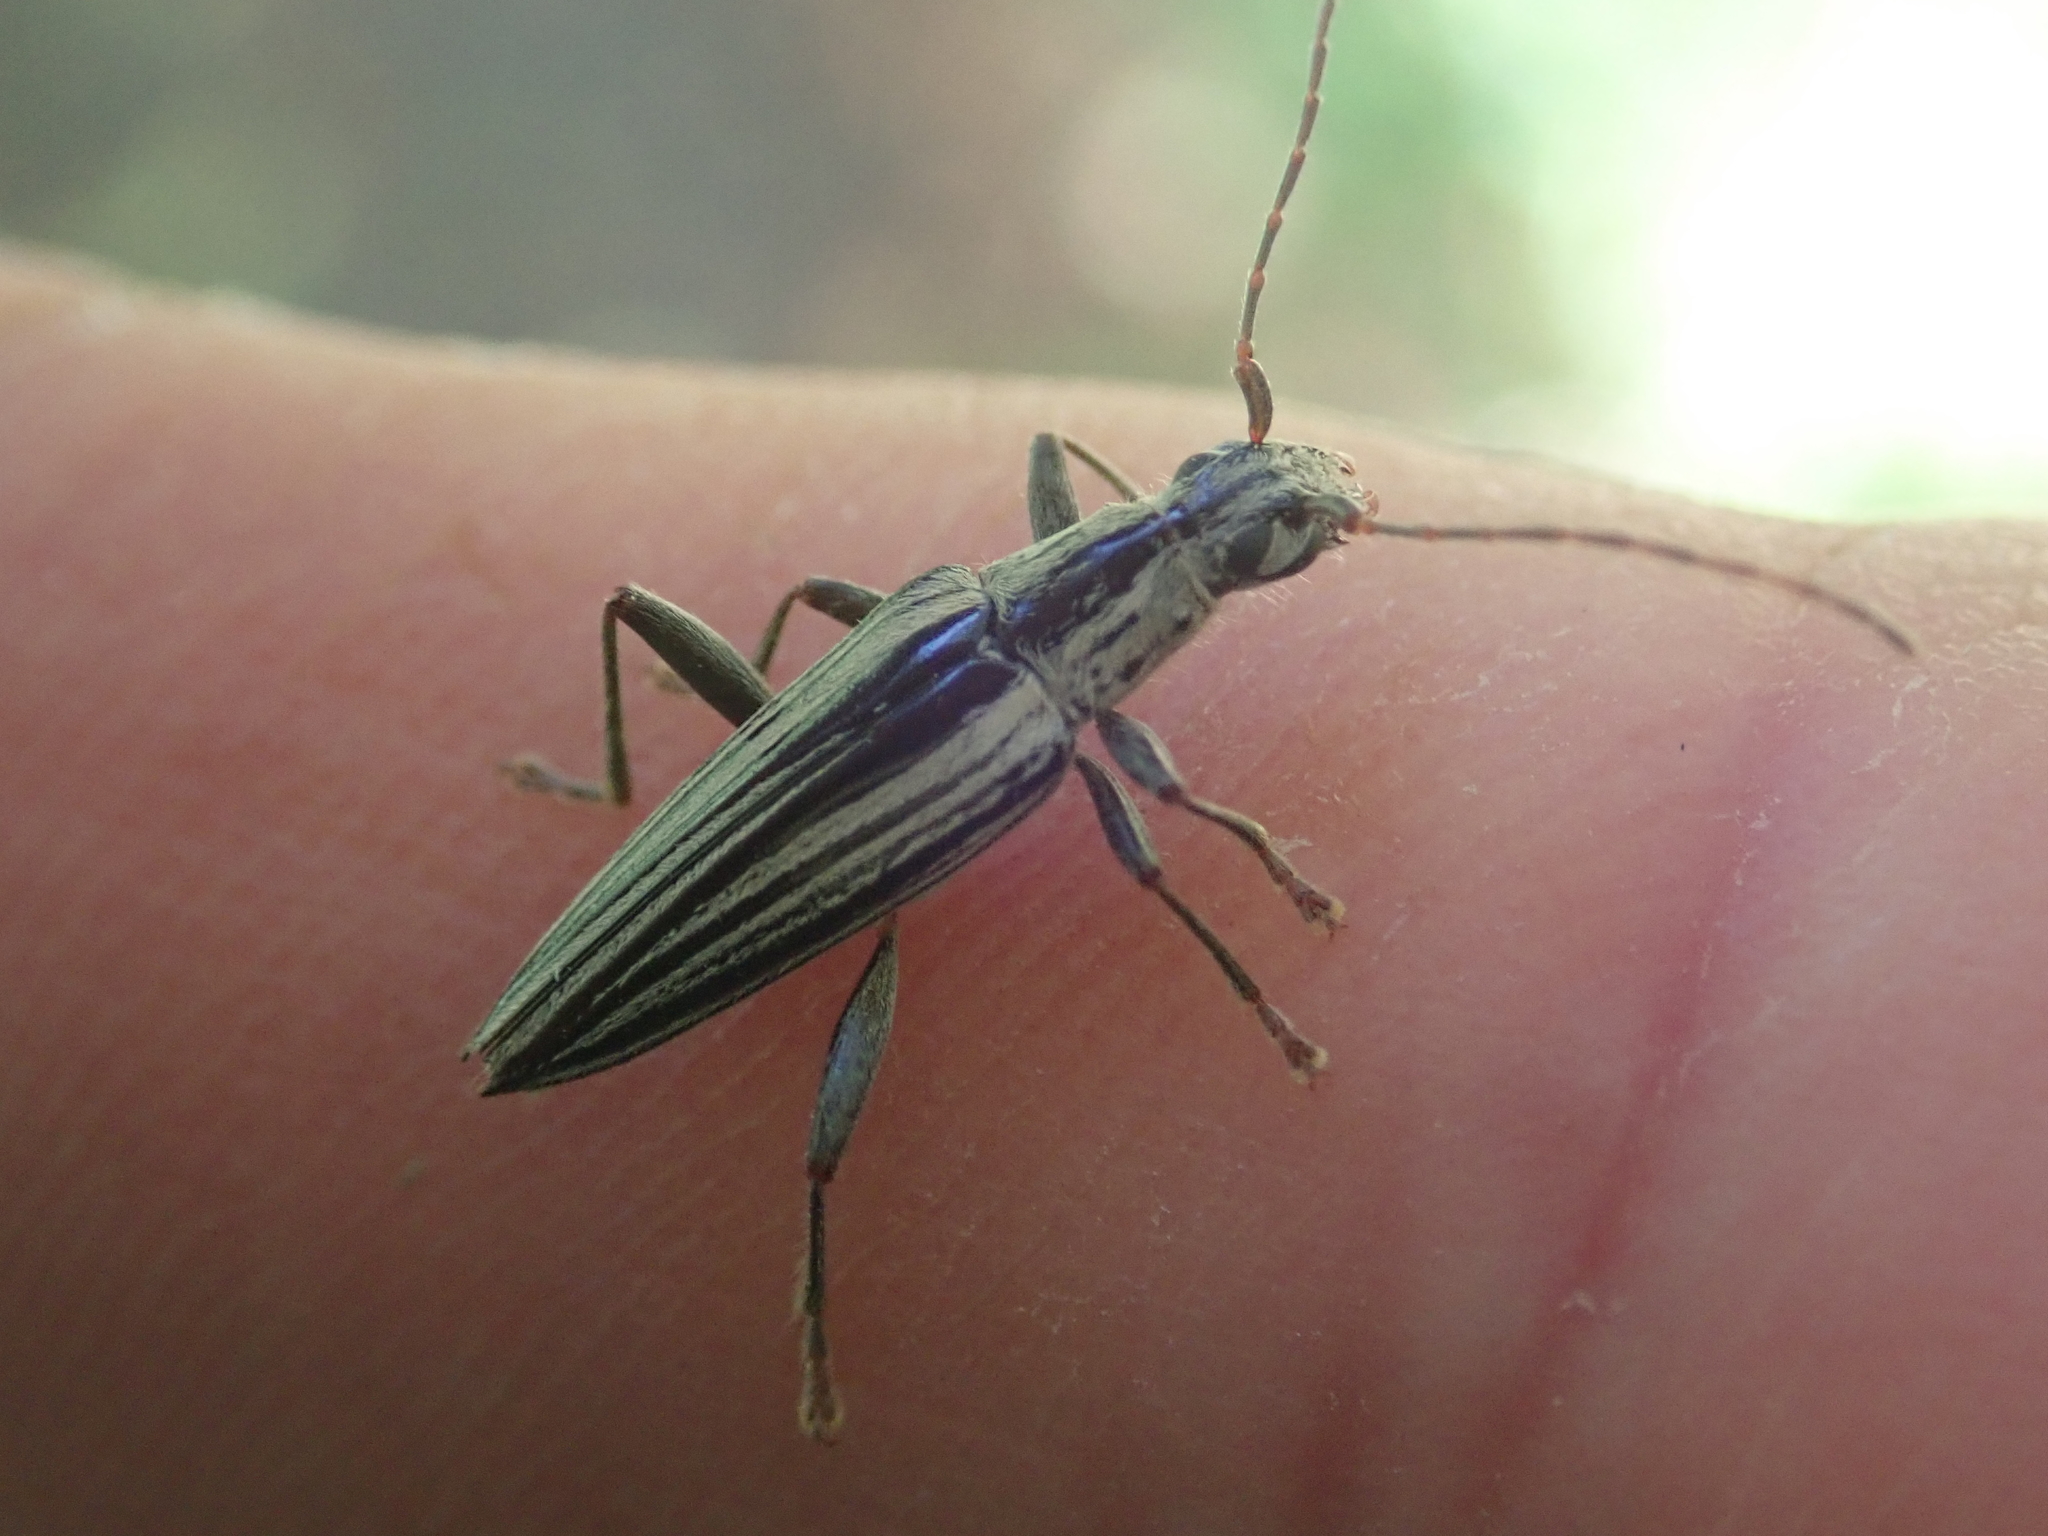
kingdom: Animalia
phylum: Arthropoda
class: Insecta
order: Coleoptera
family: Cerambycidae
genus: Coptomma
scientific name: Coptomma sulcatum
